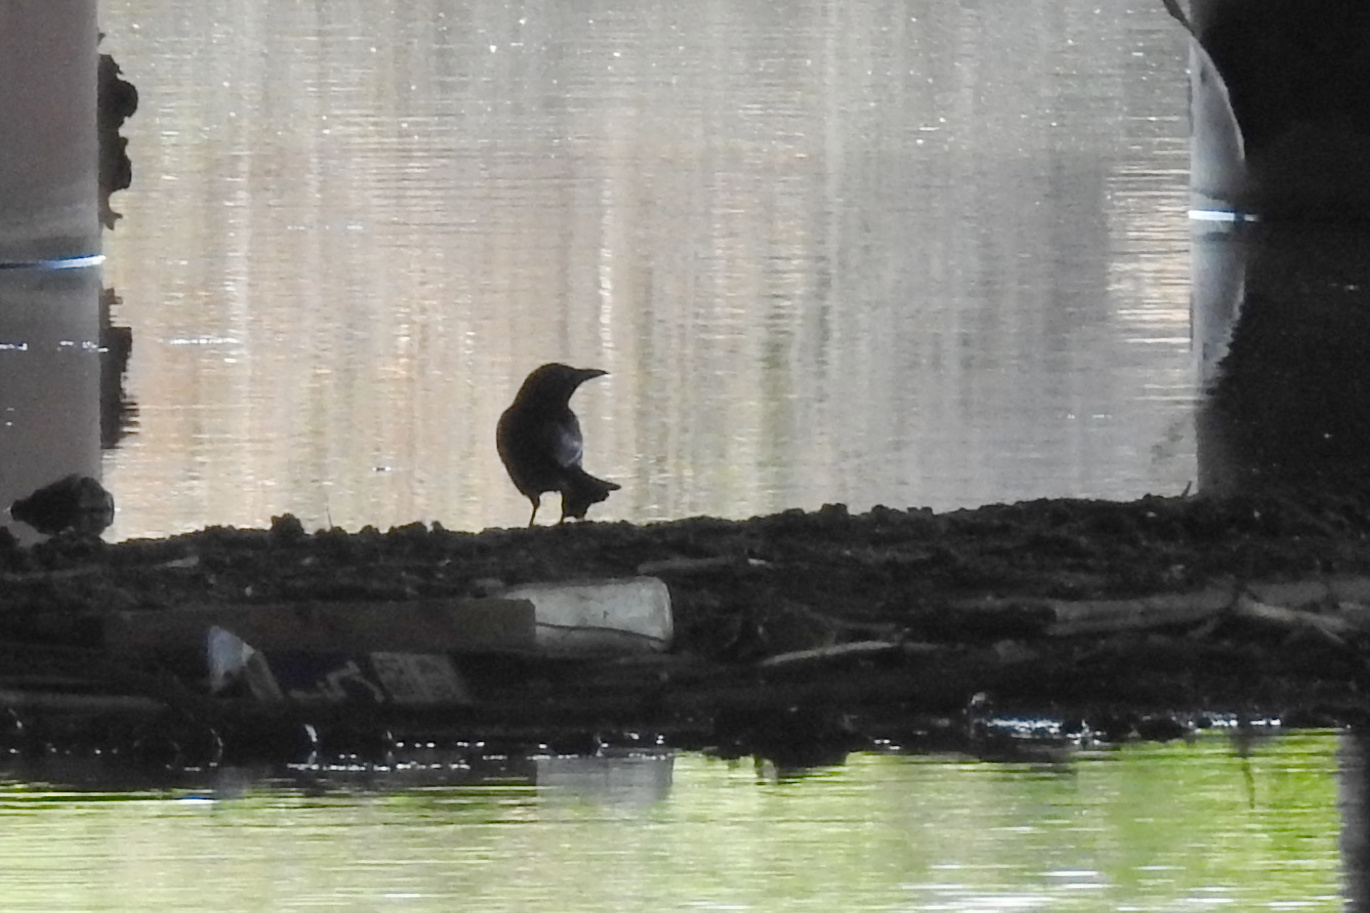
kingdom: Animalia
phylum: Chordata
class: Aves
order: Passeriformes
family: Icteridae
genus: Quiscalus
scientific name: Quiscalus quiscula
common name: Common grackle
